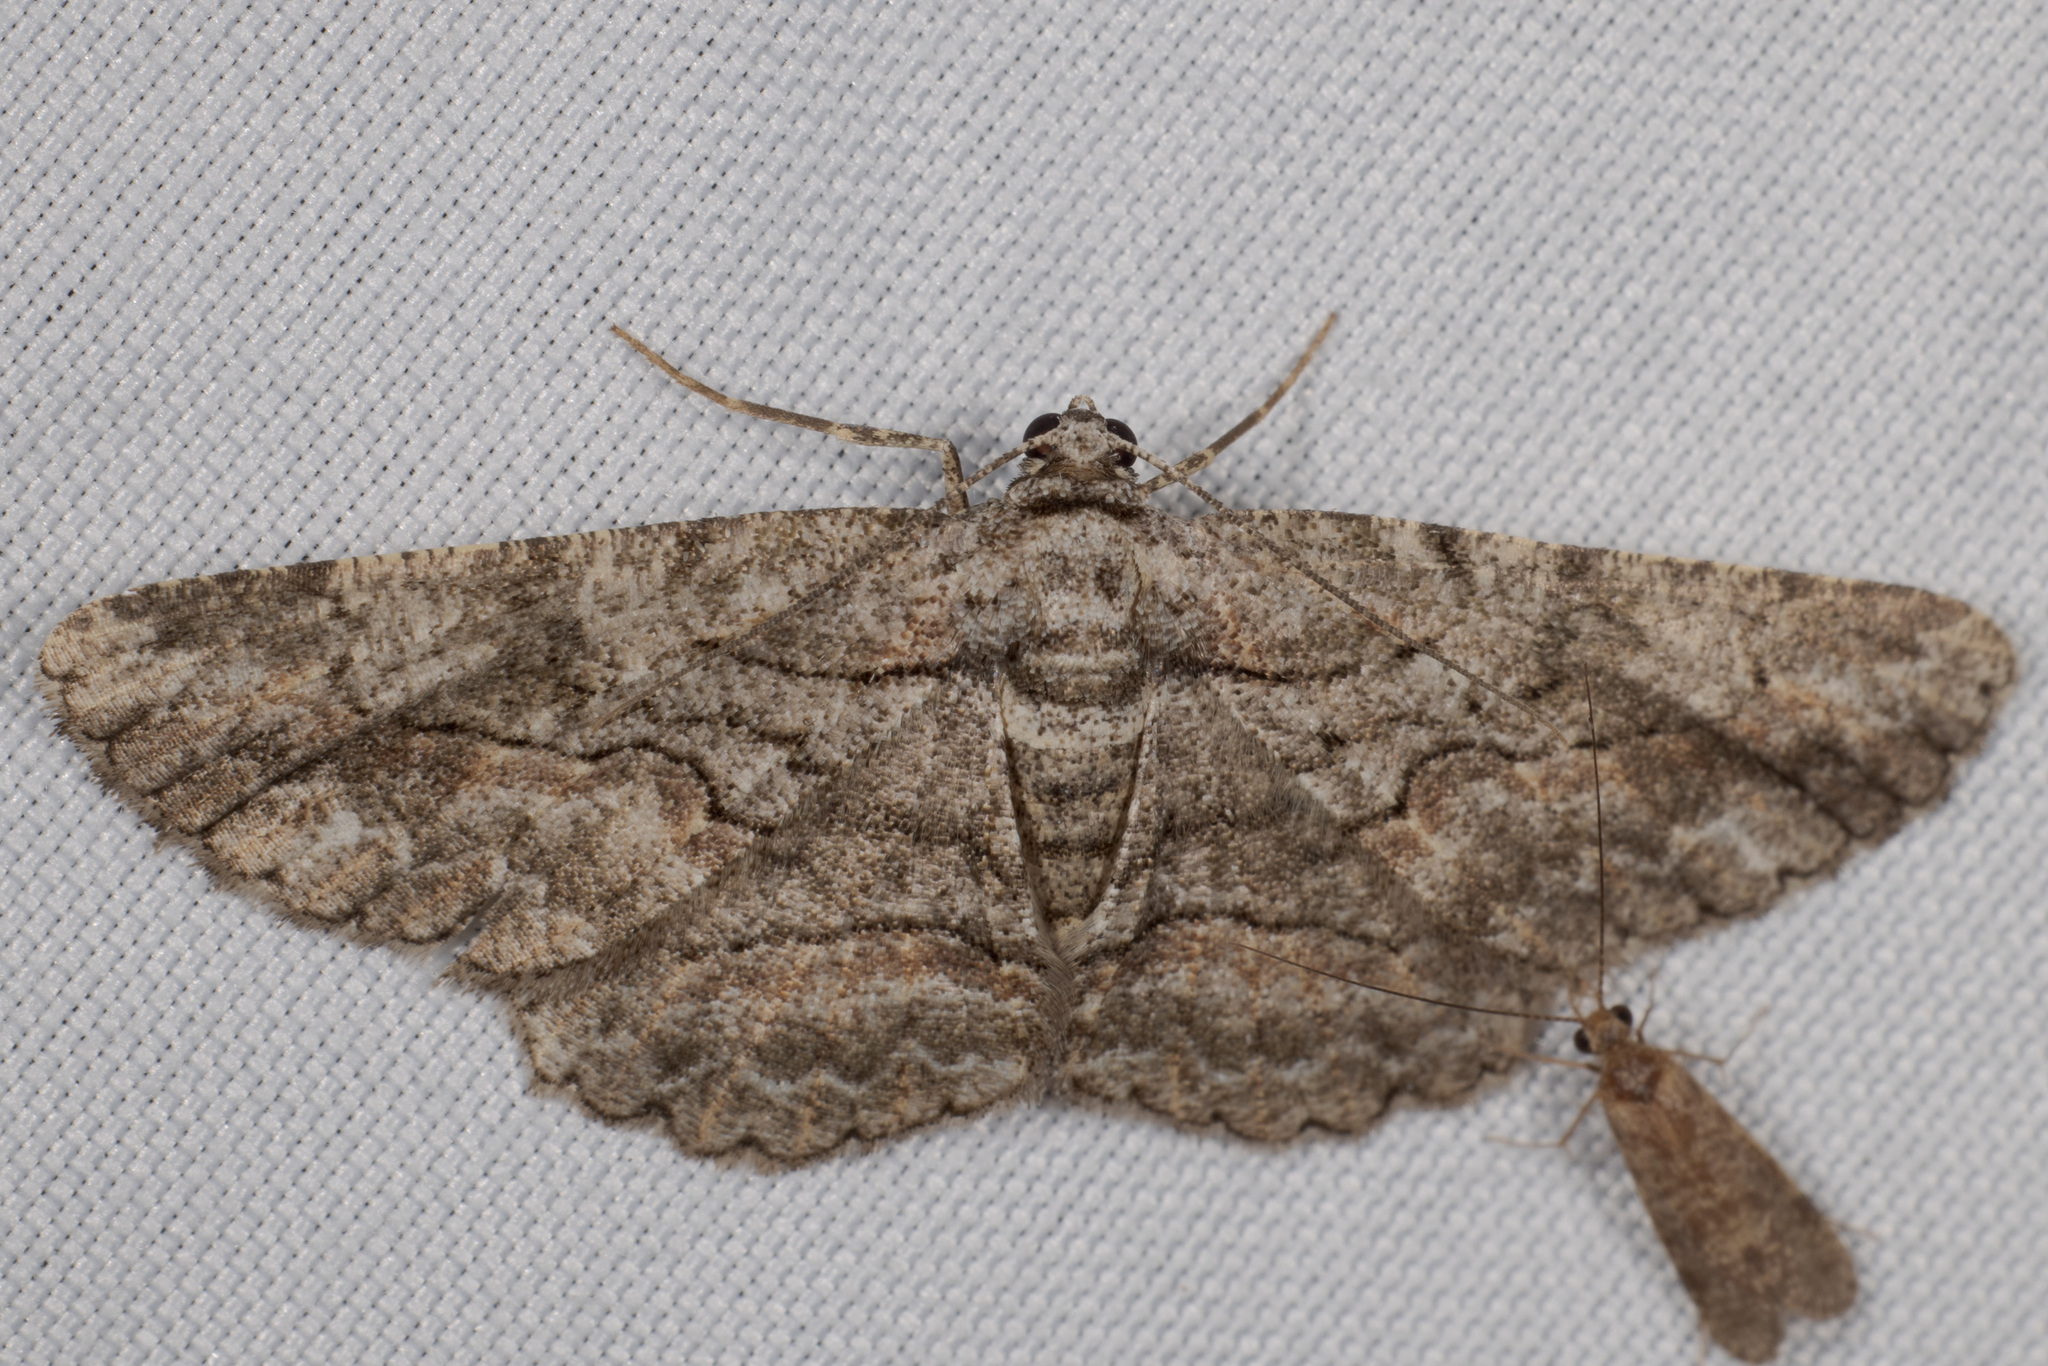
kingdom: Animalia
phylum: Arthropoda
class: Insecta
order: Lepidoptera
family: Geometridae
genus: Anavitrinella
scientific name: Anavitrinella atristrigaria
